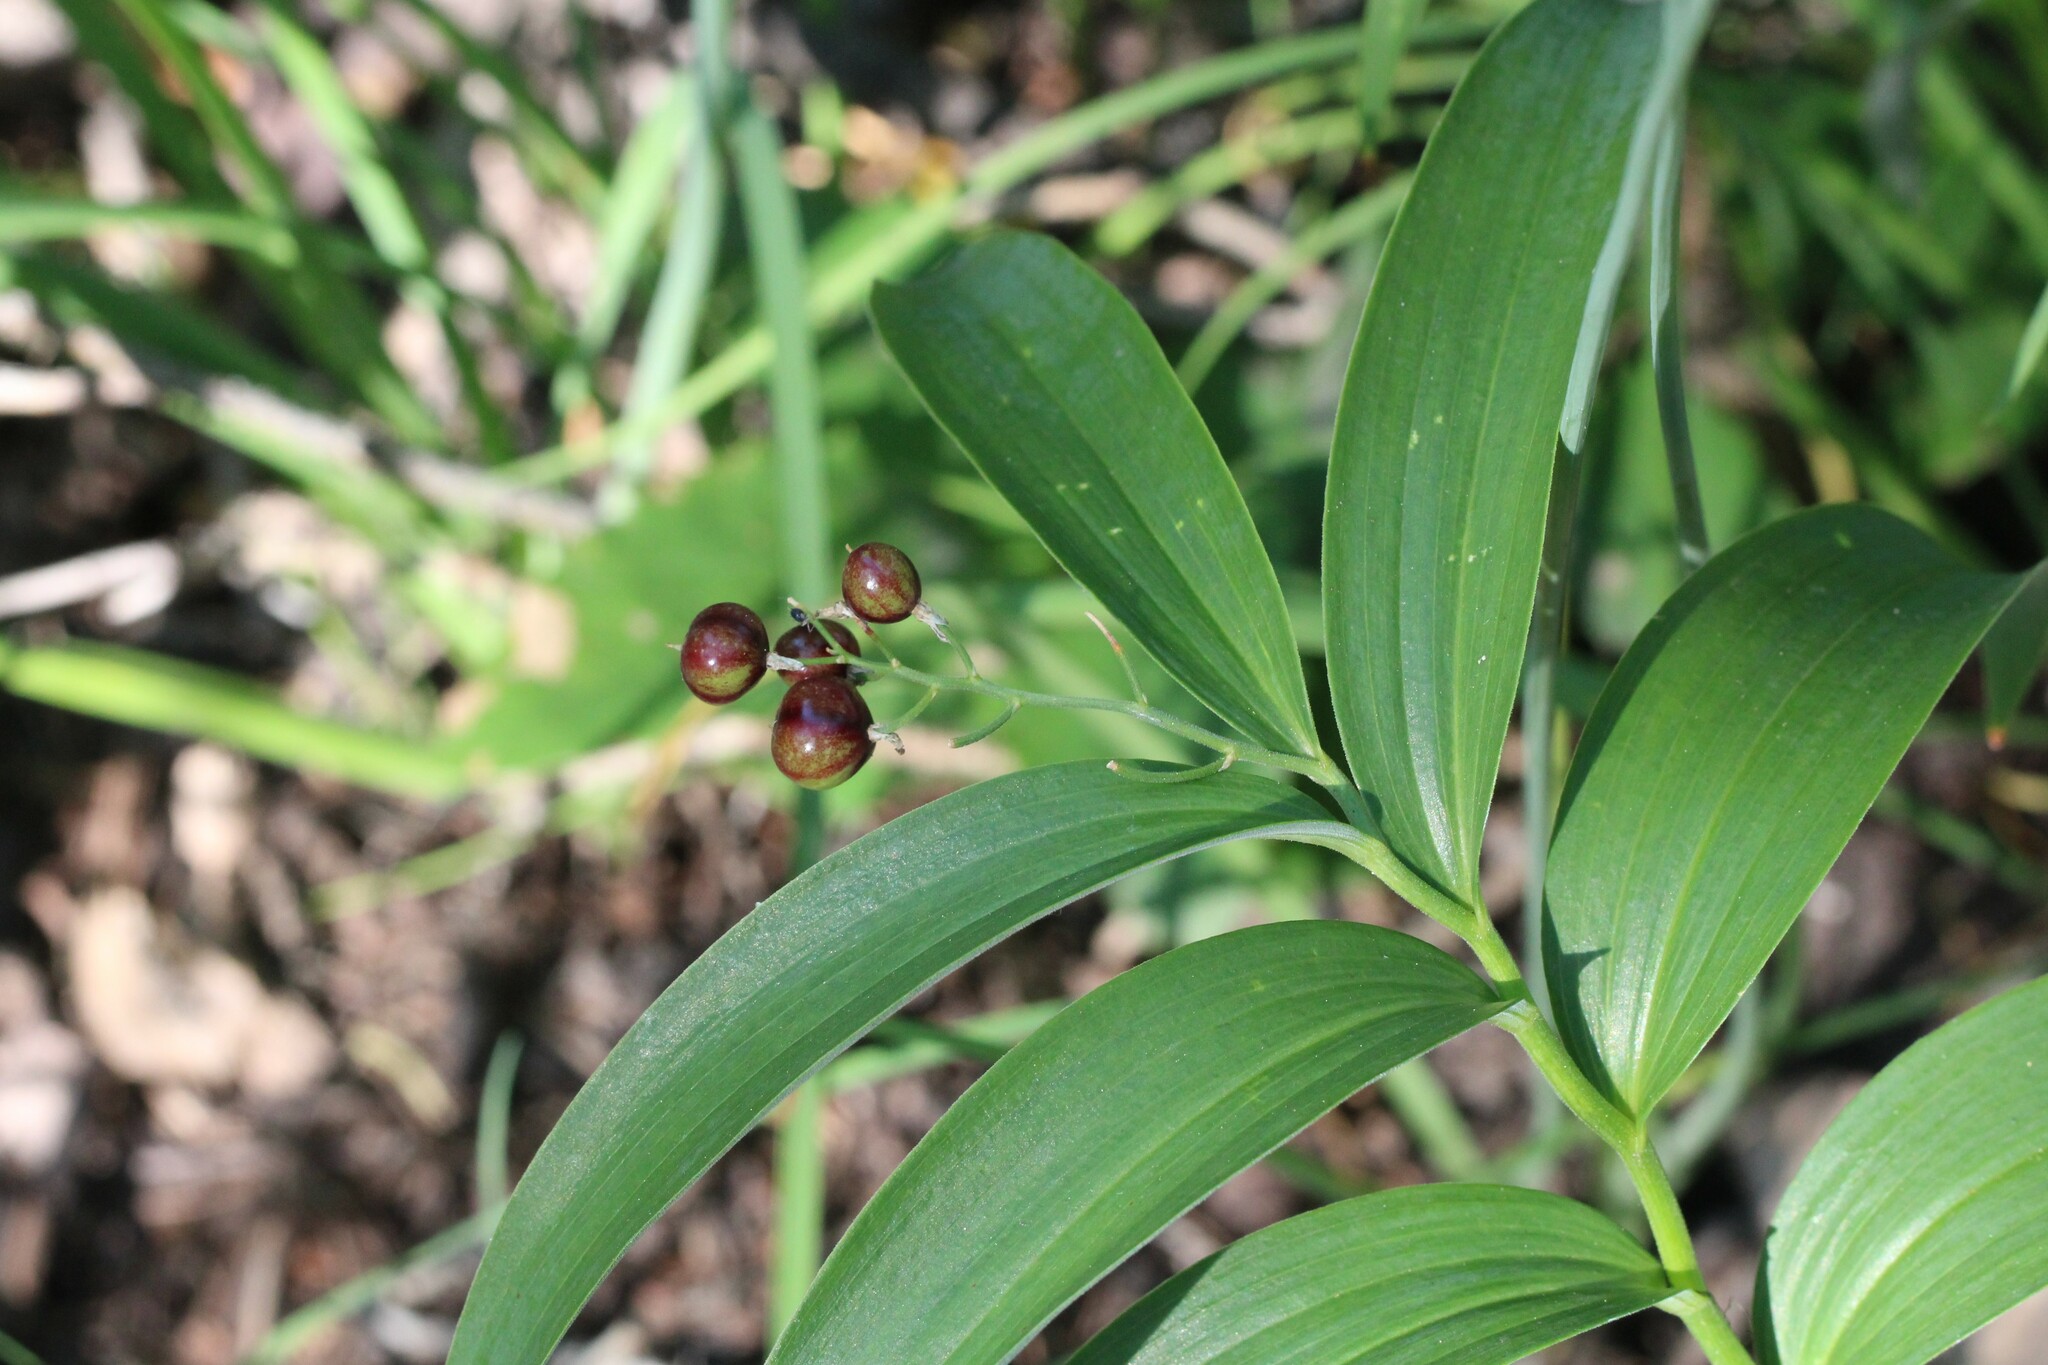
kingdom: Plantae
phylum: Tracheophyta
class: Liliopsida
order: Asparagales
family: Asparagaceae
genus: Maianthemum
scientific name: Maianthemum stellatum
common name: Little false solomon's seal
